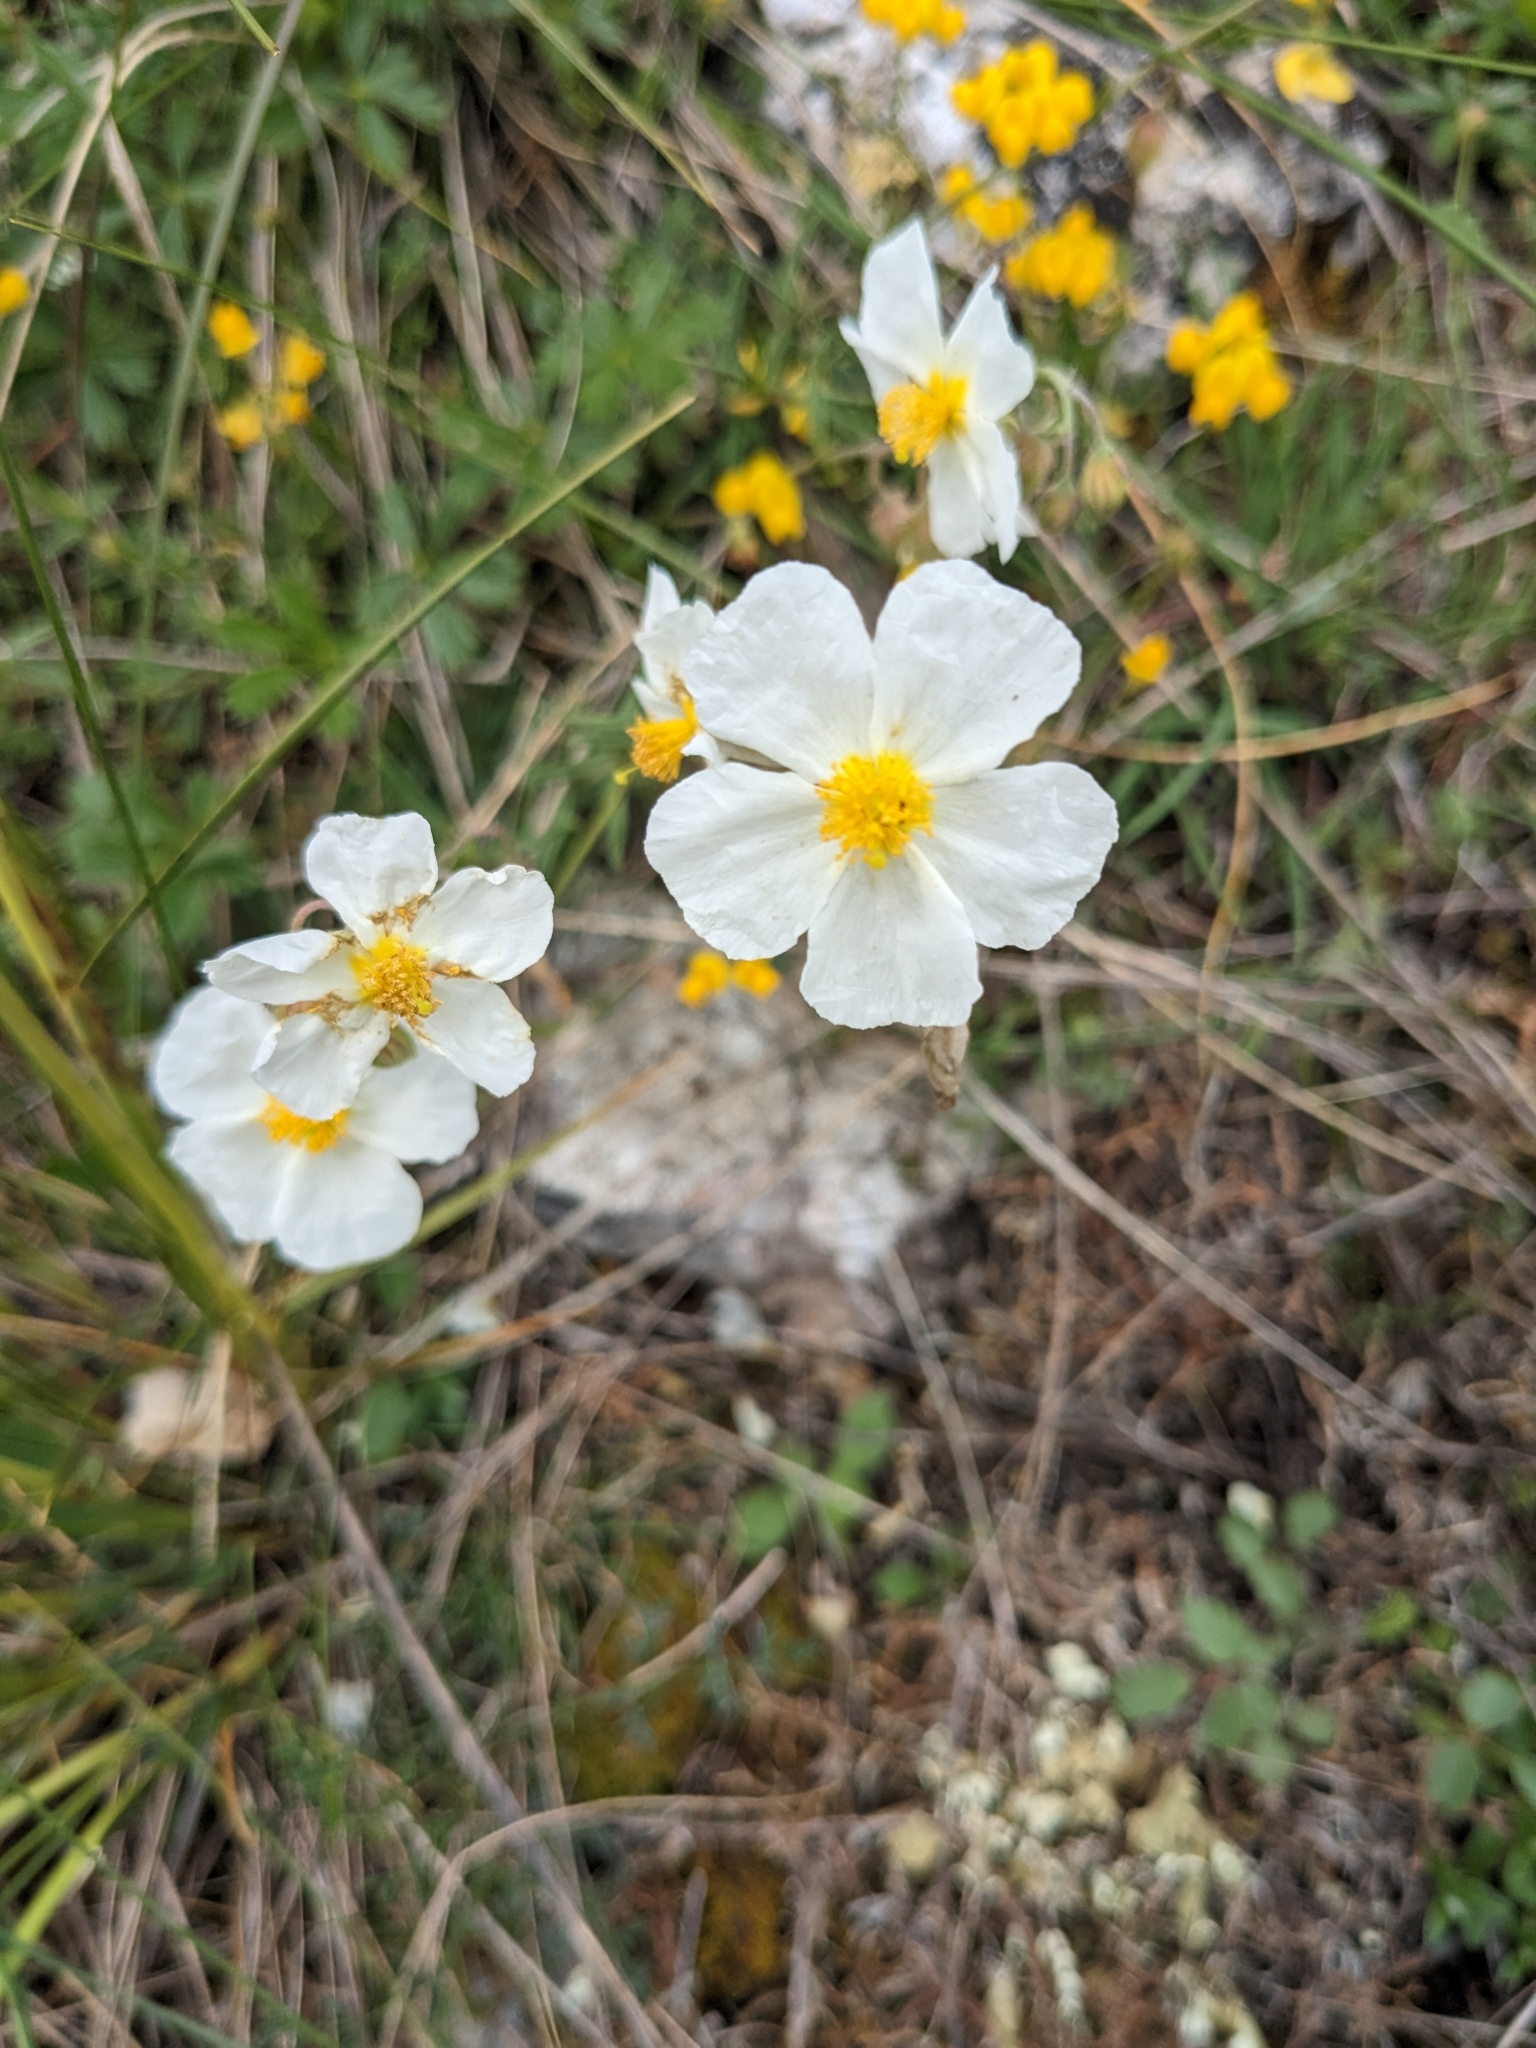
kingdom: Plantae
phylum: Tracheophyta
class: Magnoliopsida
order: Malvales
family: Cistaceae
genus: Helianthemum
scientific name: Helianthemum apenninum
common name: White rock-rose
